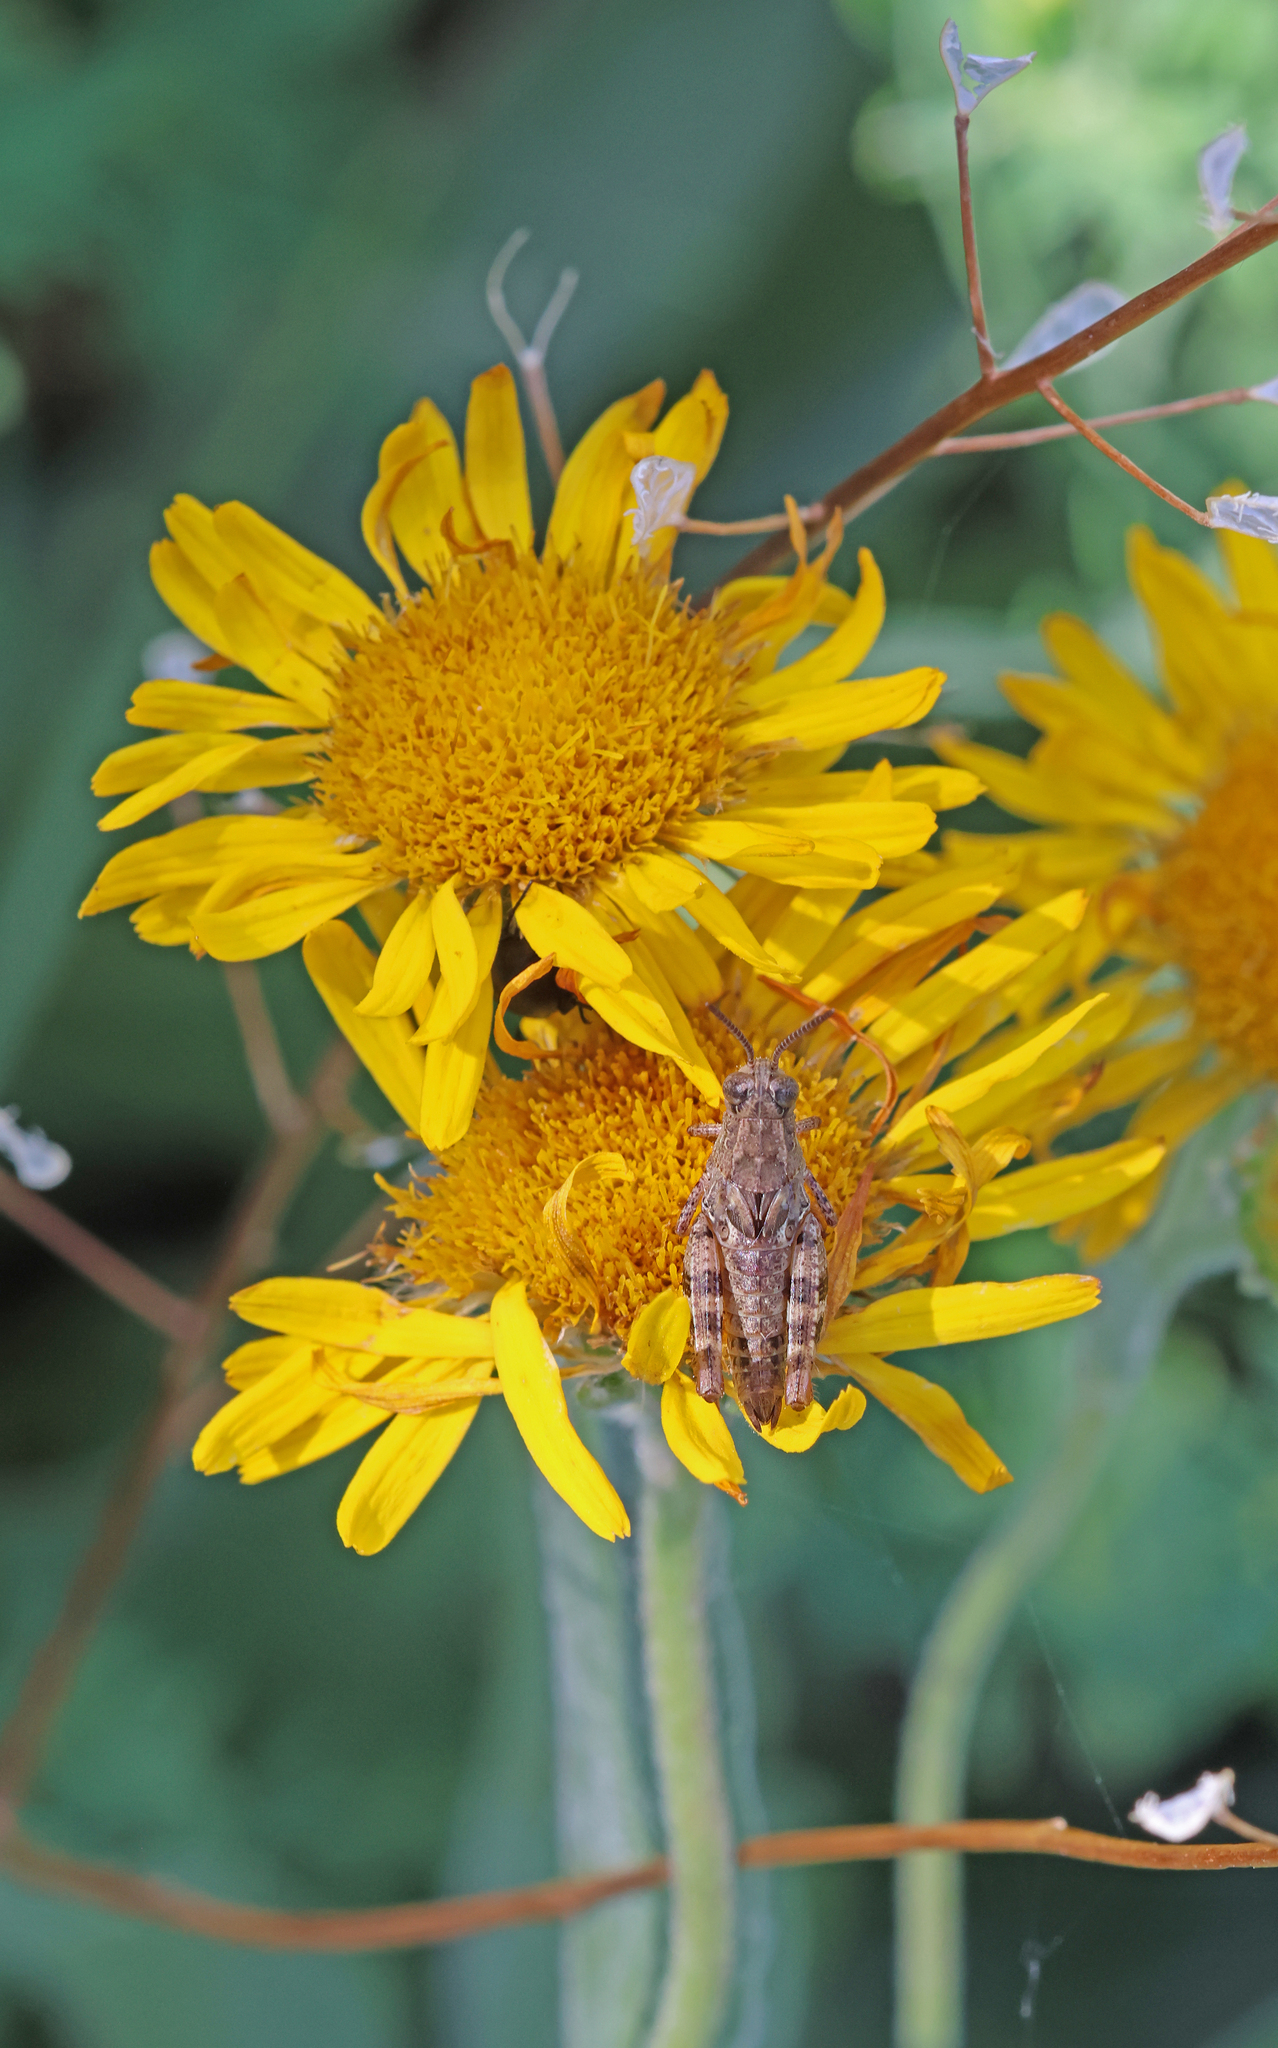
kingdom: Animalia
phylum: Arthropoda
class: Insecta
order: Orthoptera
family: Acrididae
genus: Calliptamus
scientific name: Calliptamus italicus
